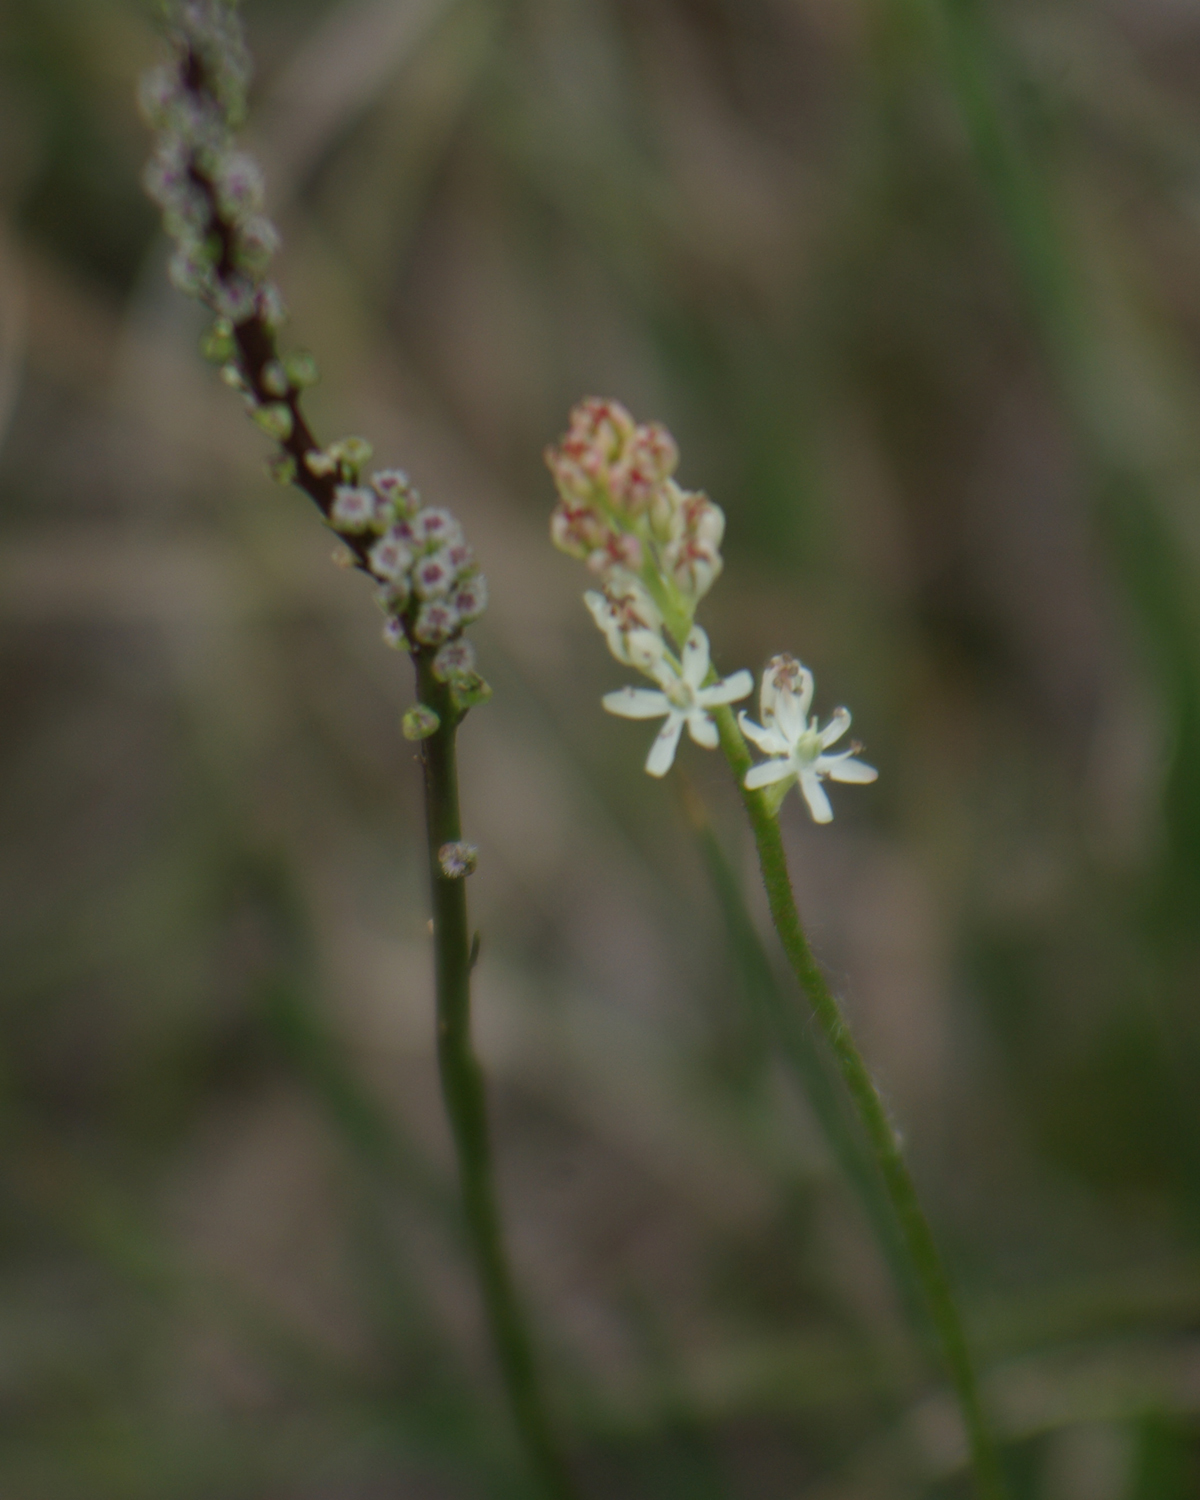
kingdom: Plantae
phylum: Tracheophyta
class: Liliopsida
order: Alismatales
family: Juncaginaceae
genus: Triglochin
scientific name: Triglochin maritima
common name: Sea arrowgrass
